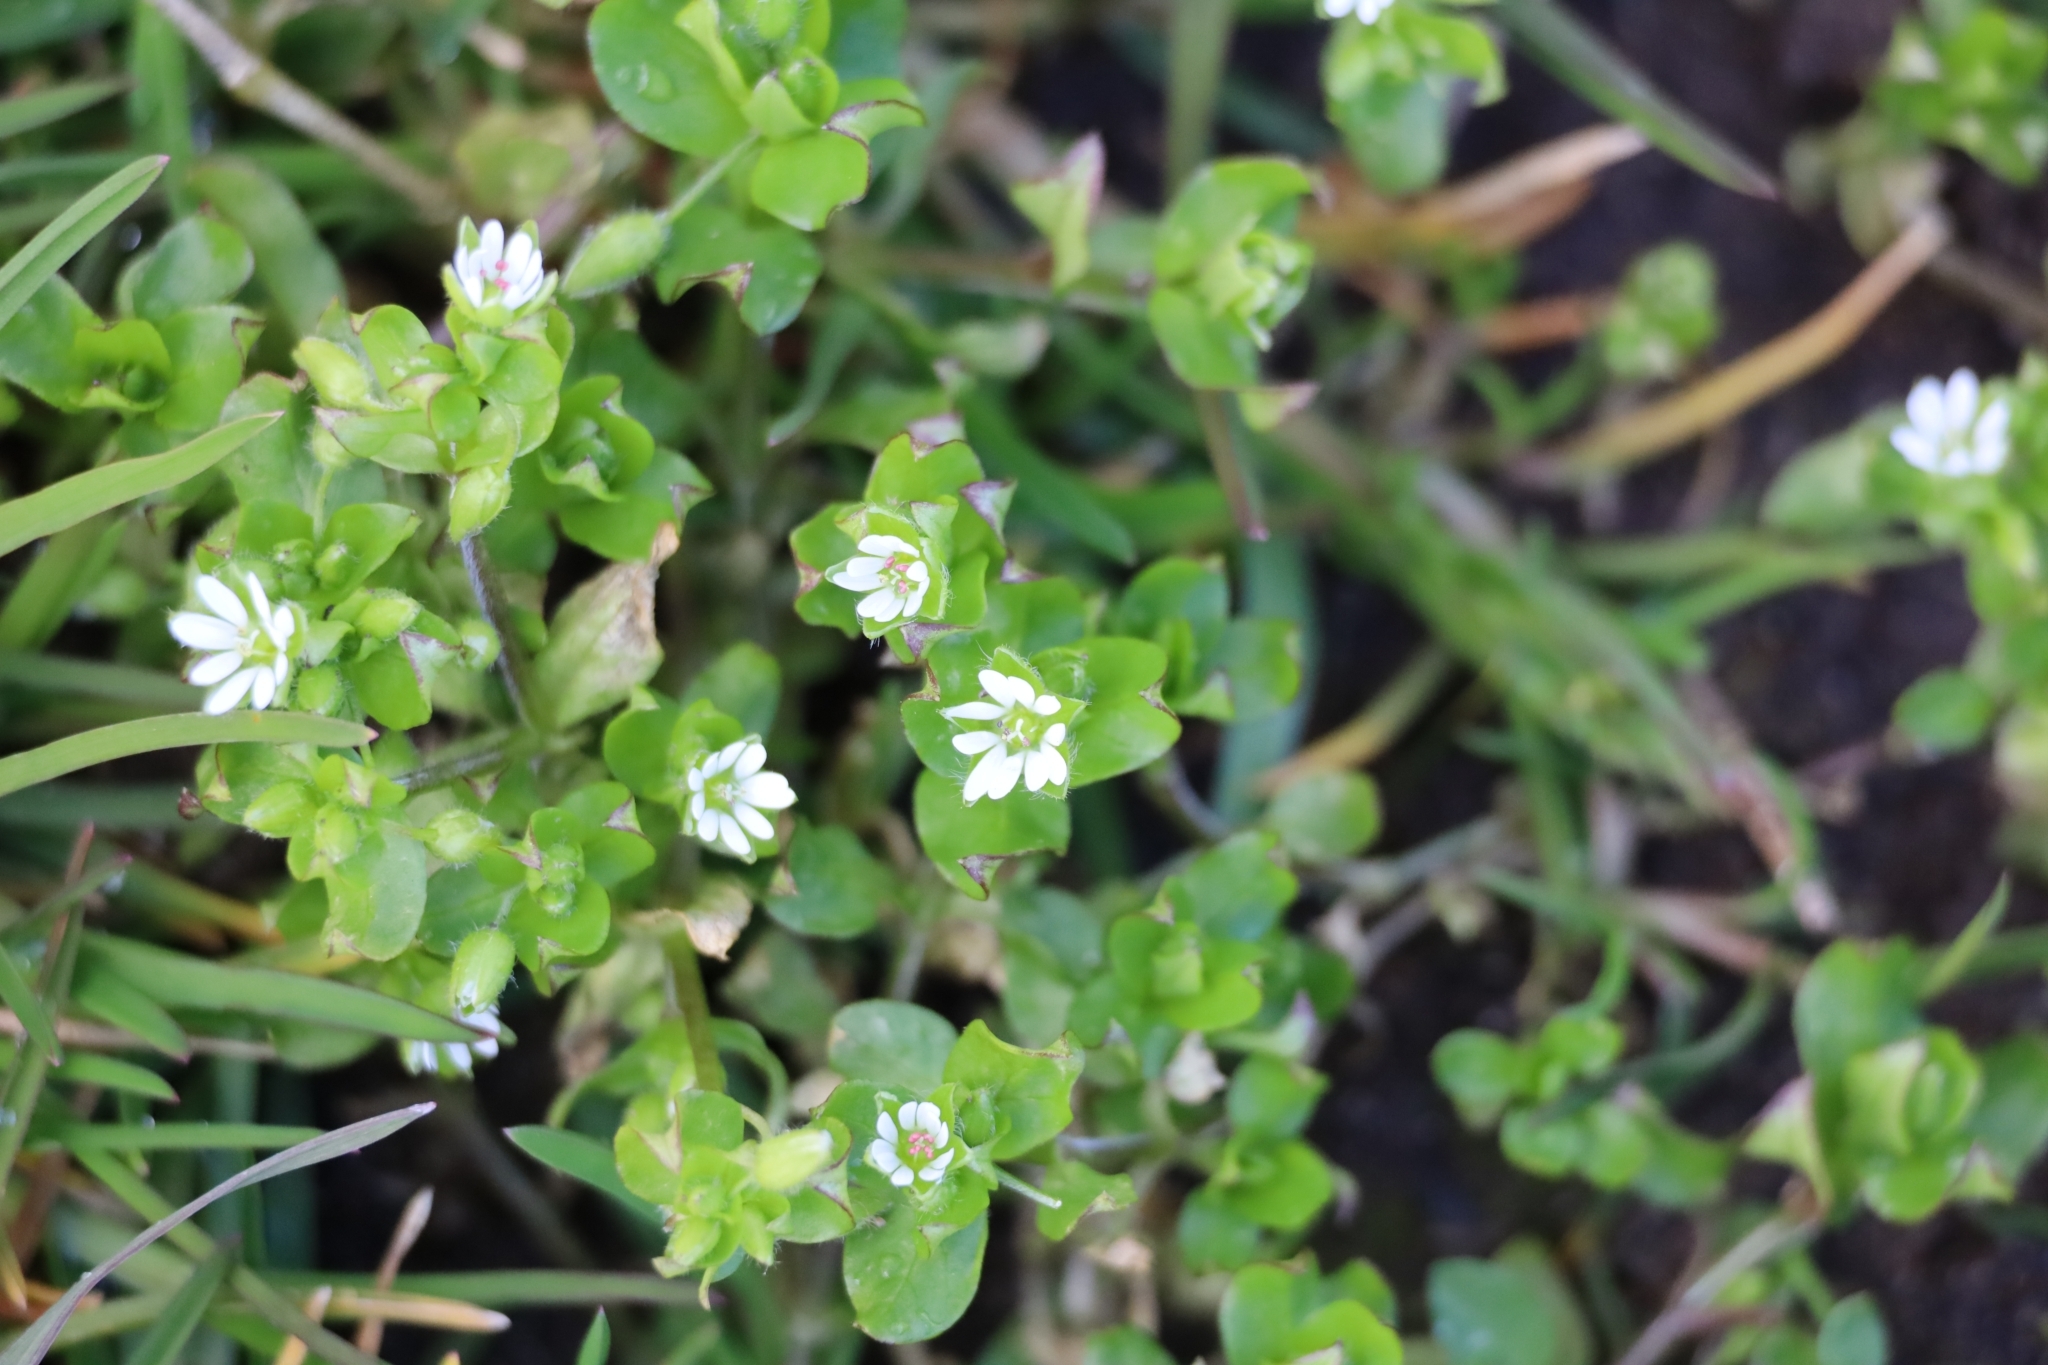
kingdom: Plantae
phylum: Tracheophyta
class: Magnoliopsida
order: Caryophyllales
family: Caryophyllaceae
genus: Stellaria
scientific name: Stellaria media
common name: Common chickweed
